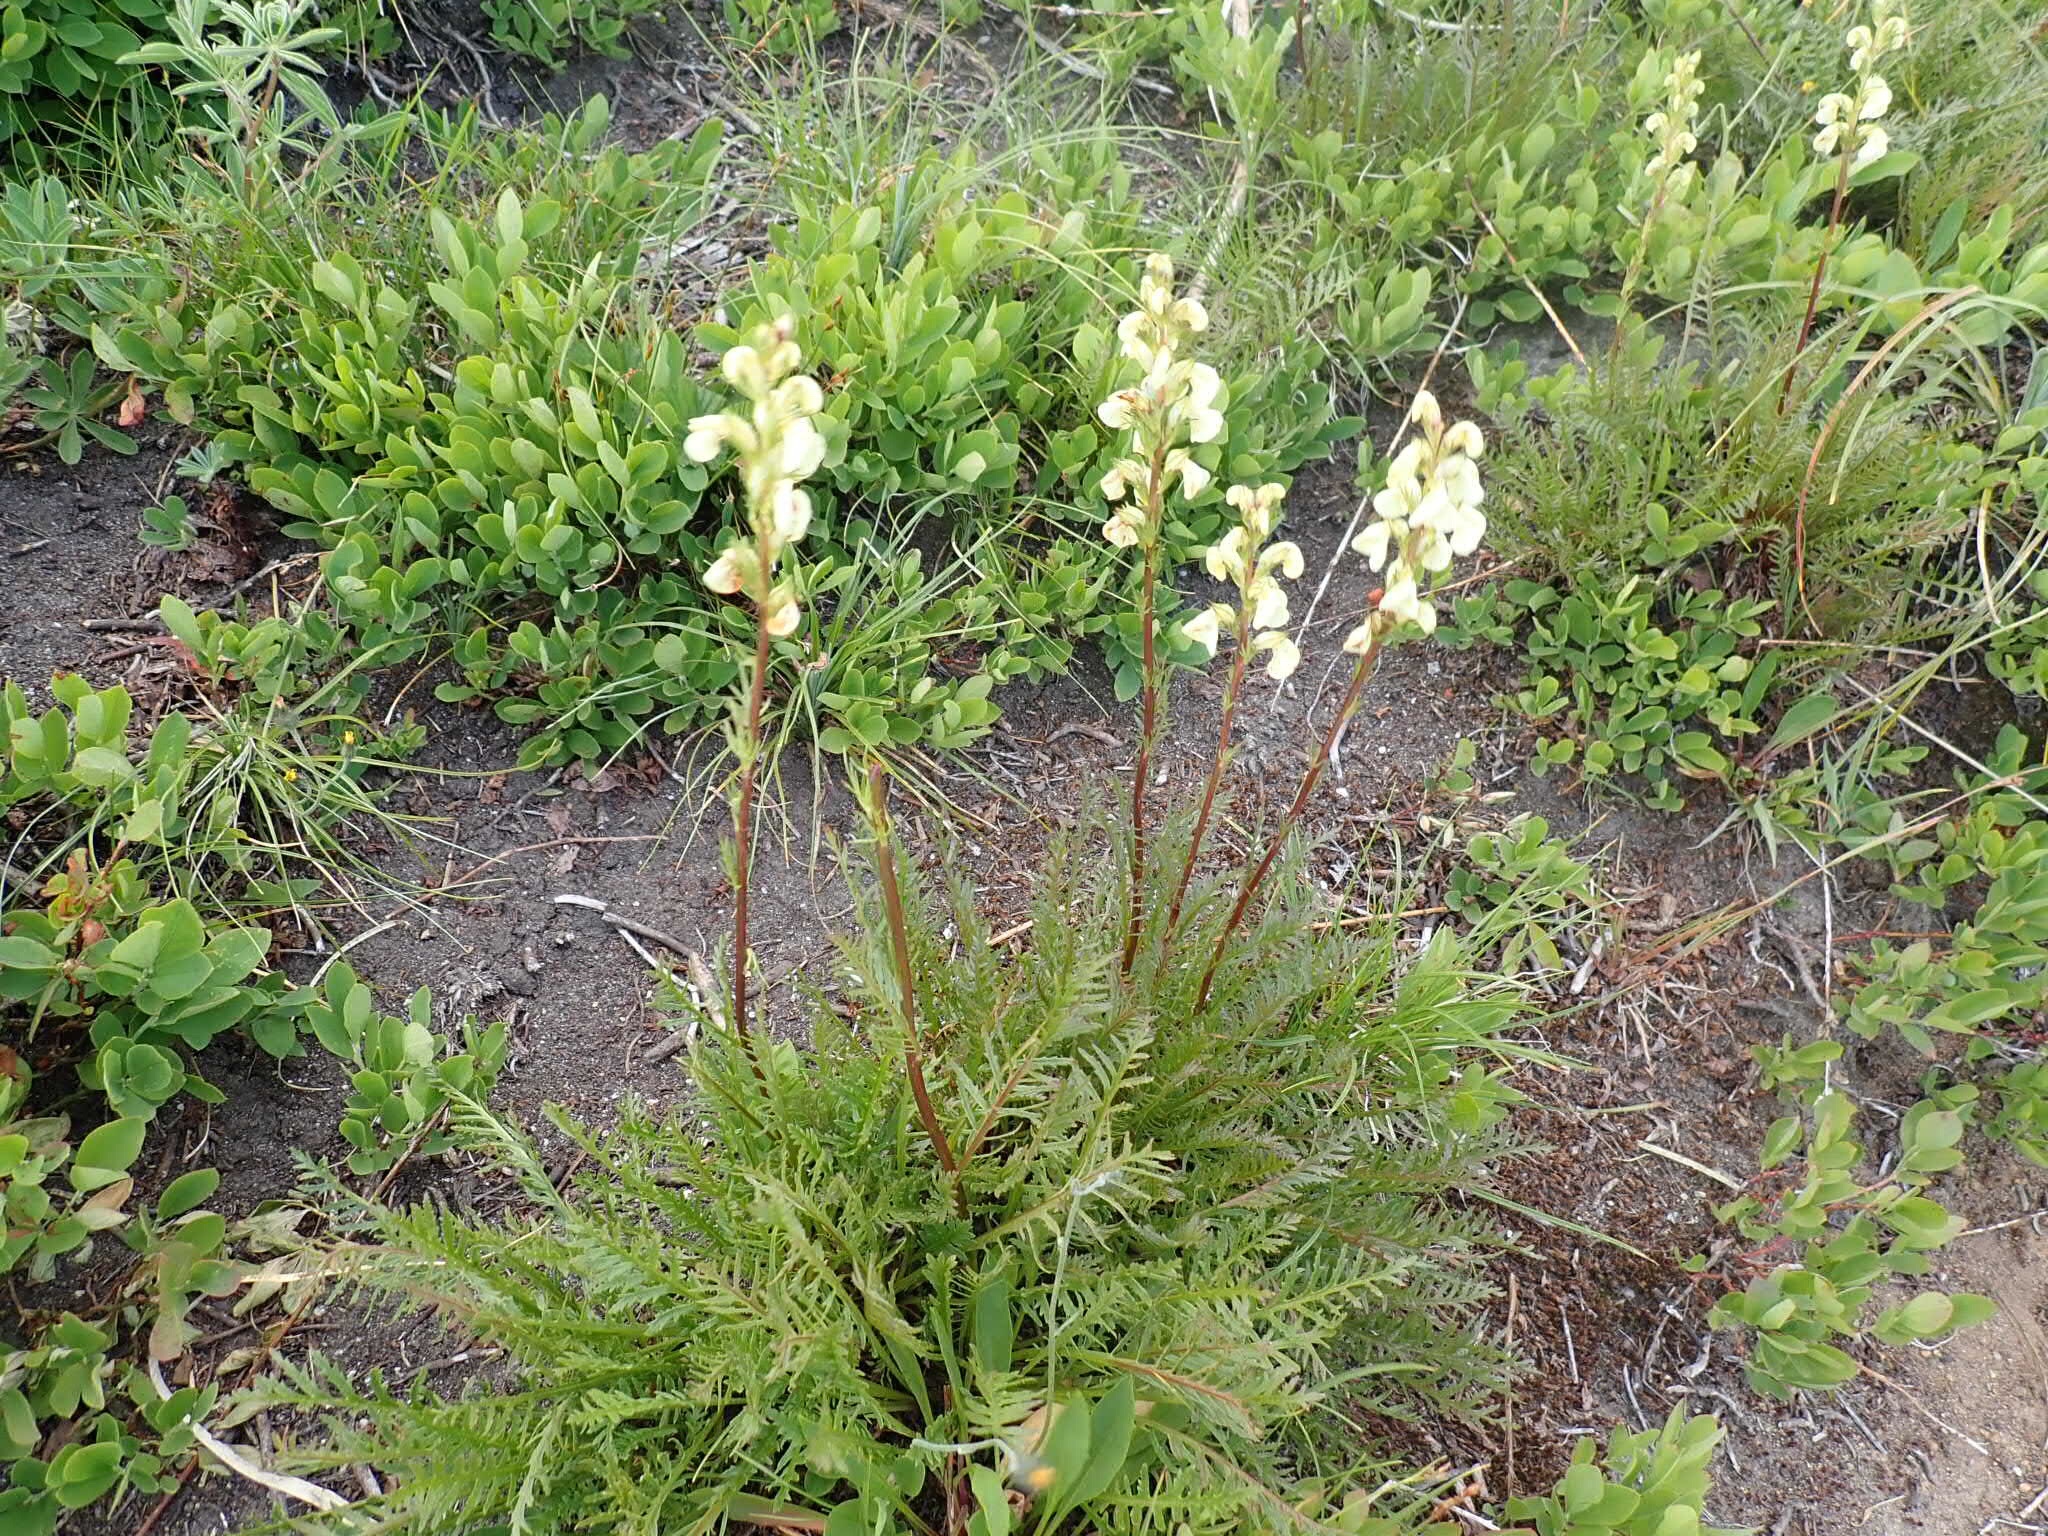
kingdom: Plantae
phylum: Tracheophyta
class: Magnoliopsida
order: Lamiales
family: Orobanchaceae
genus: Pedicularis
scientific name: Pedicularis contorta
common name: Coiled lousewort
